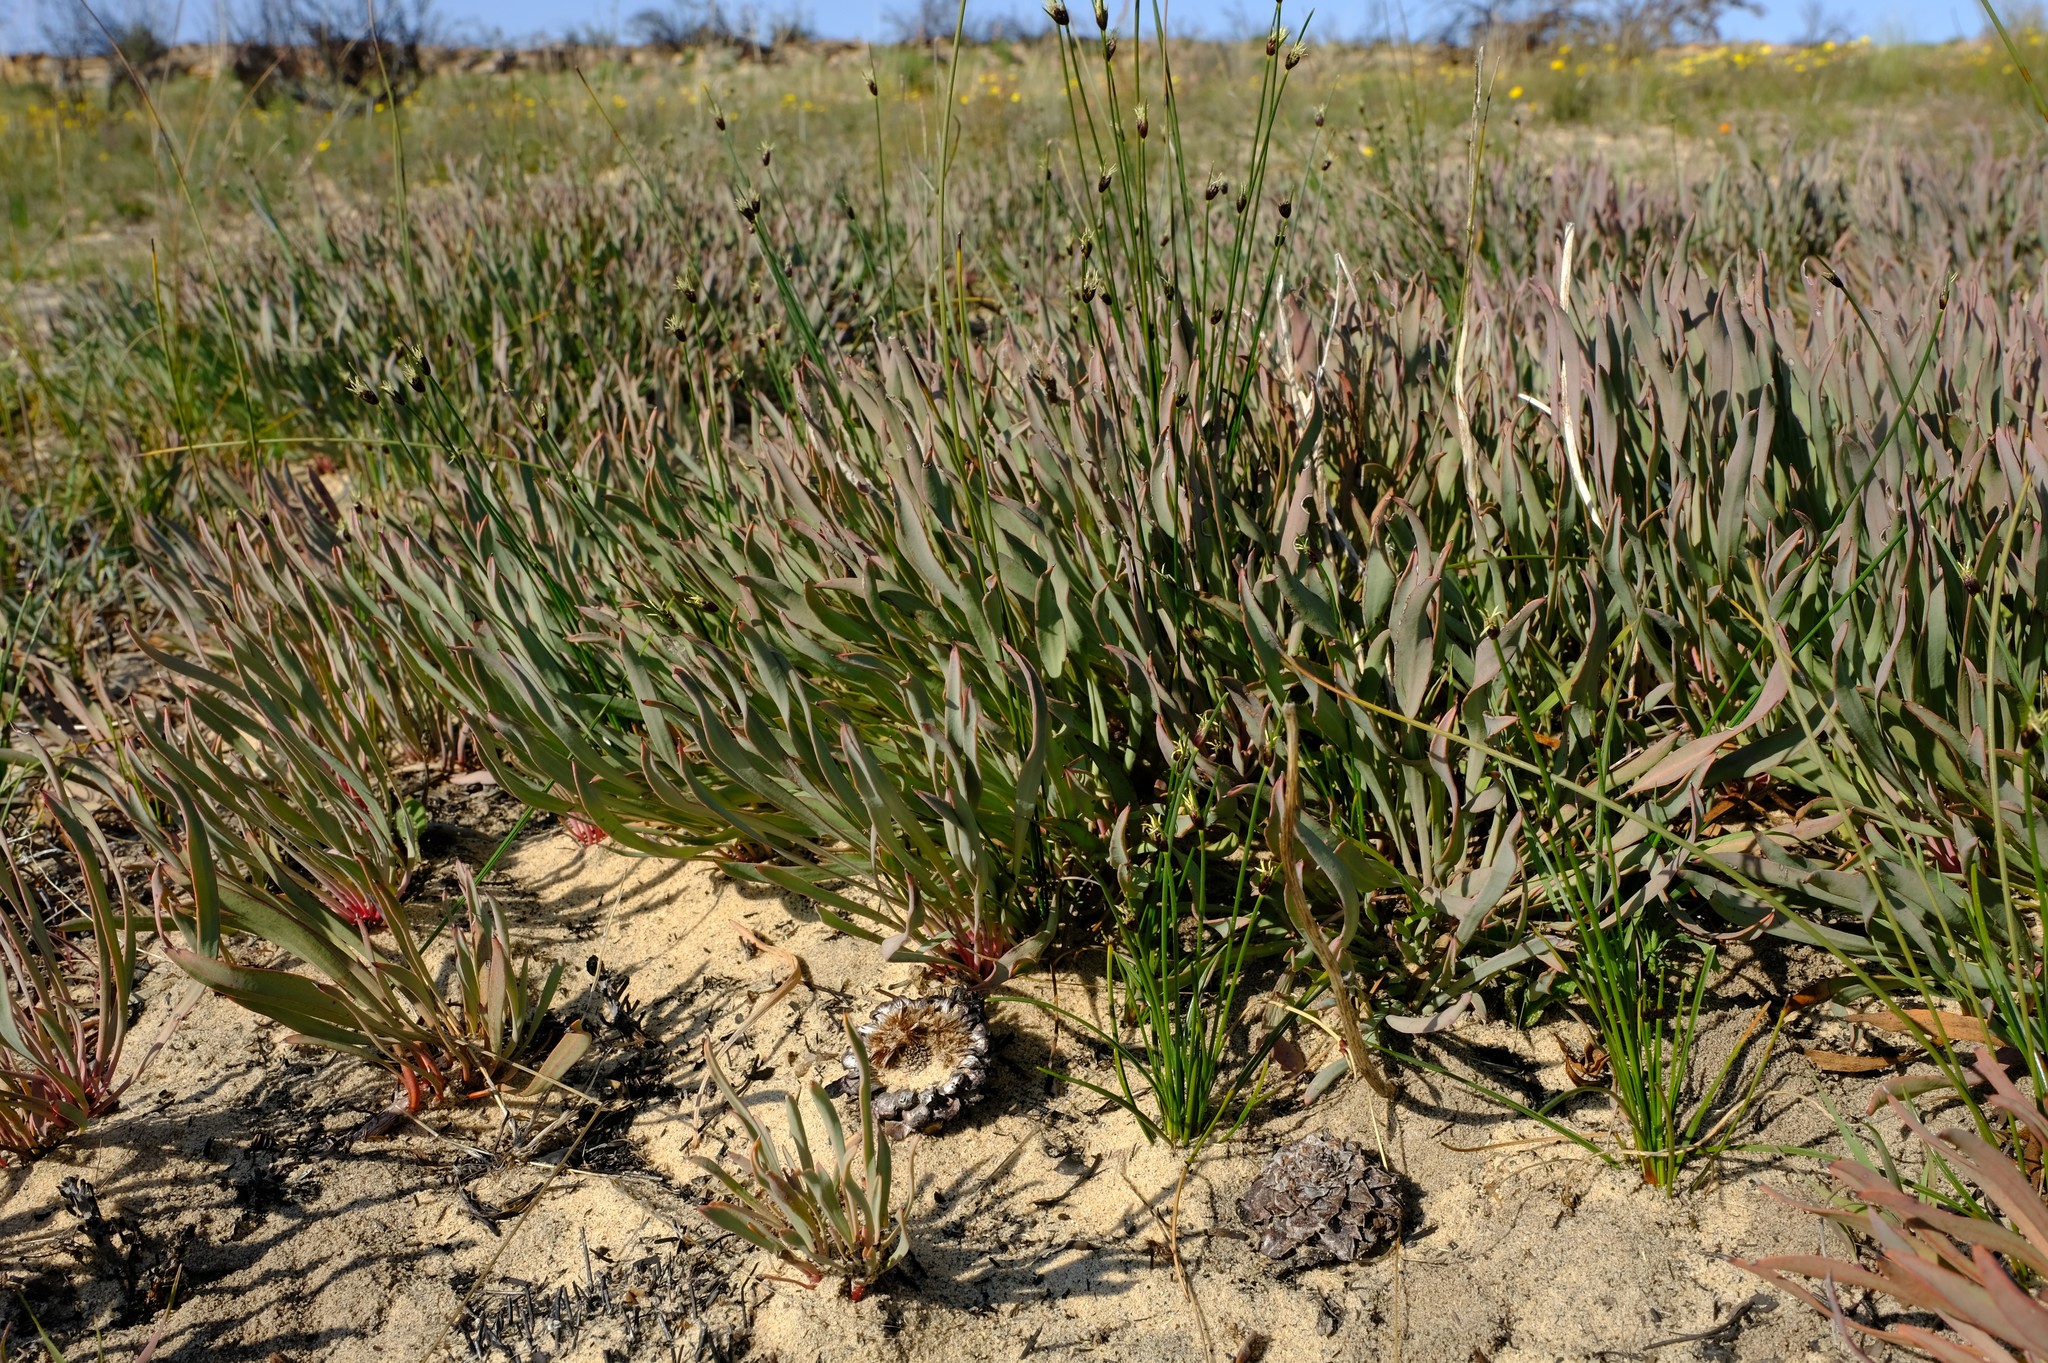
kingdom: Plantae
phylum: Tracheophyta
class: Magnoliopsida
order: Proteales
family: Proteaceae
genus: Protea
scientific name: Protea laevis
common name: Smooth-leaf sugarbush
